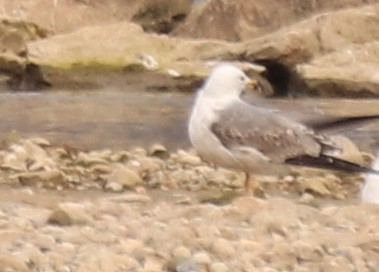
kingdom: Animalia
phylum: Chordata
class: Aves
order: Charadriiformes
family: Laridae
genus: Larus
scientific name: Larus michahellis
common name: Yellow-legged gull
